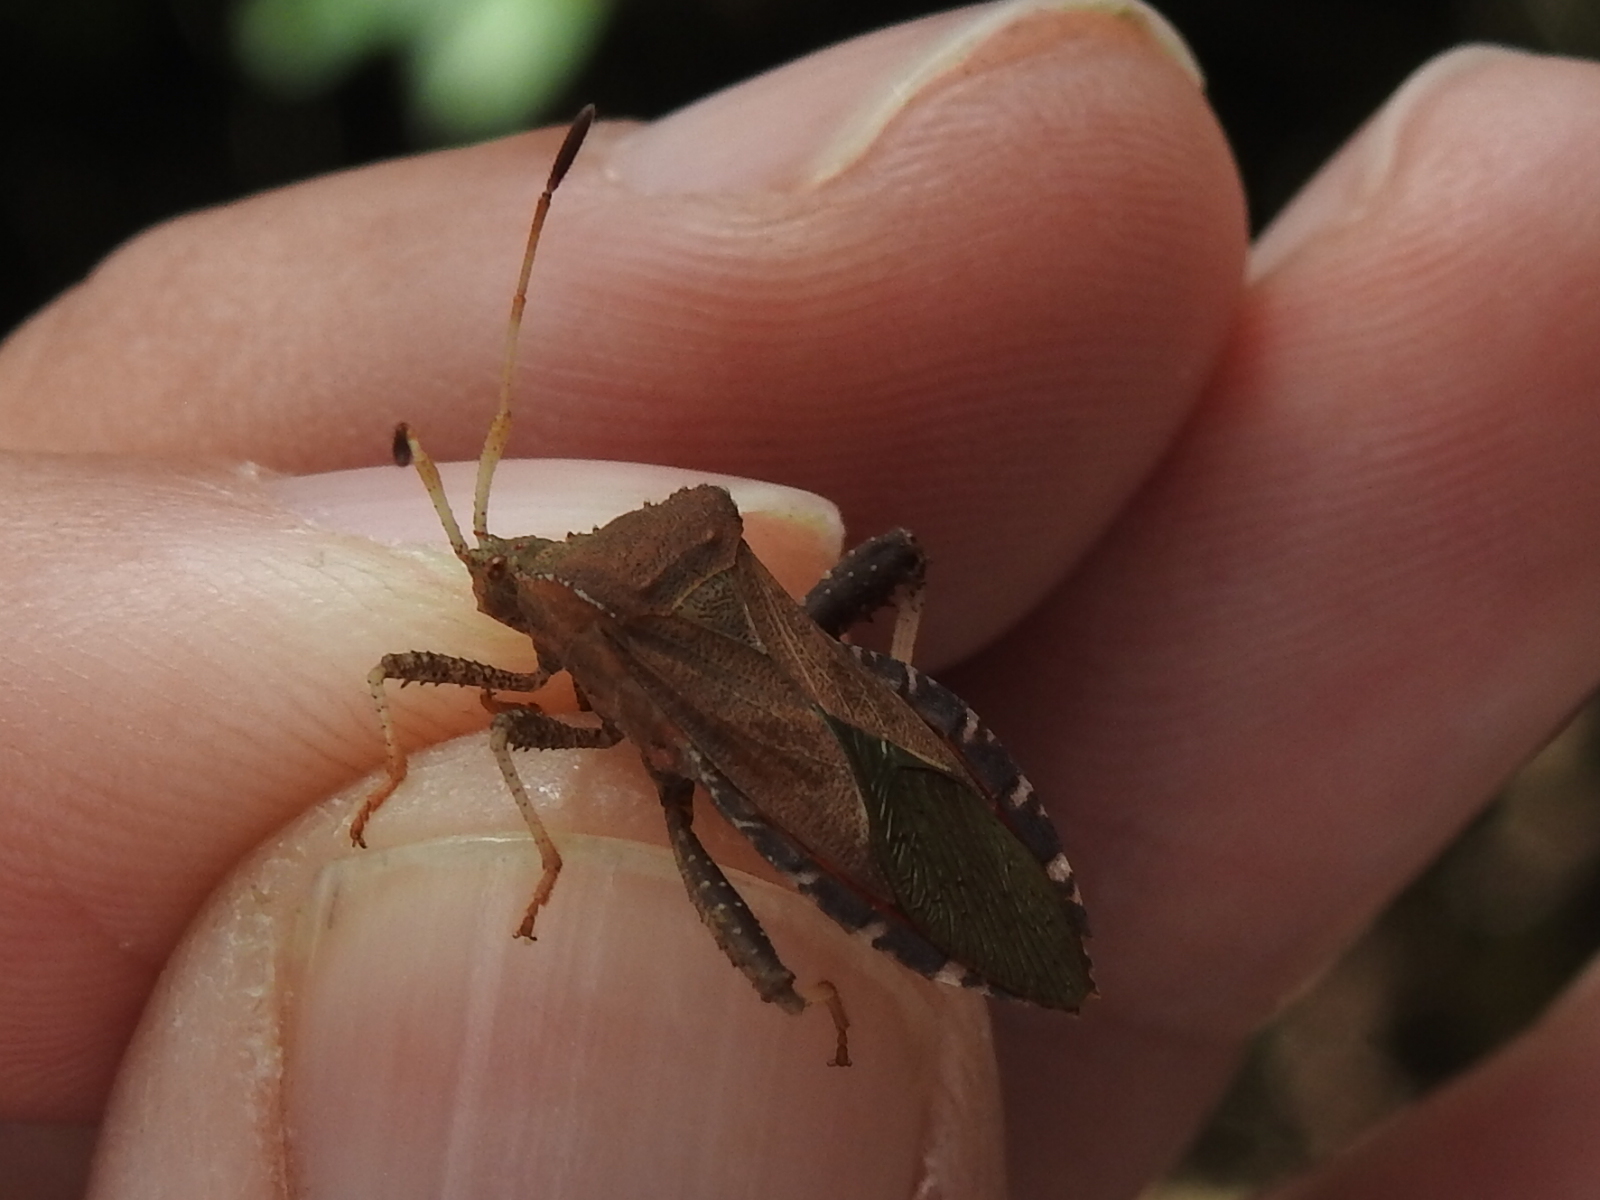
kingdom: Animalia
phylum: Arthropoda
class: Insecta
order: Hemiptera
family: Coreidae
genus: Euthochtha
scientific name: Euthochtha galeator
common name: Helmeted squash bug
